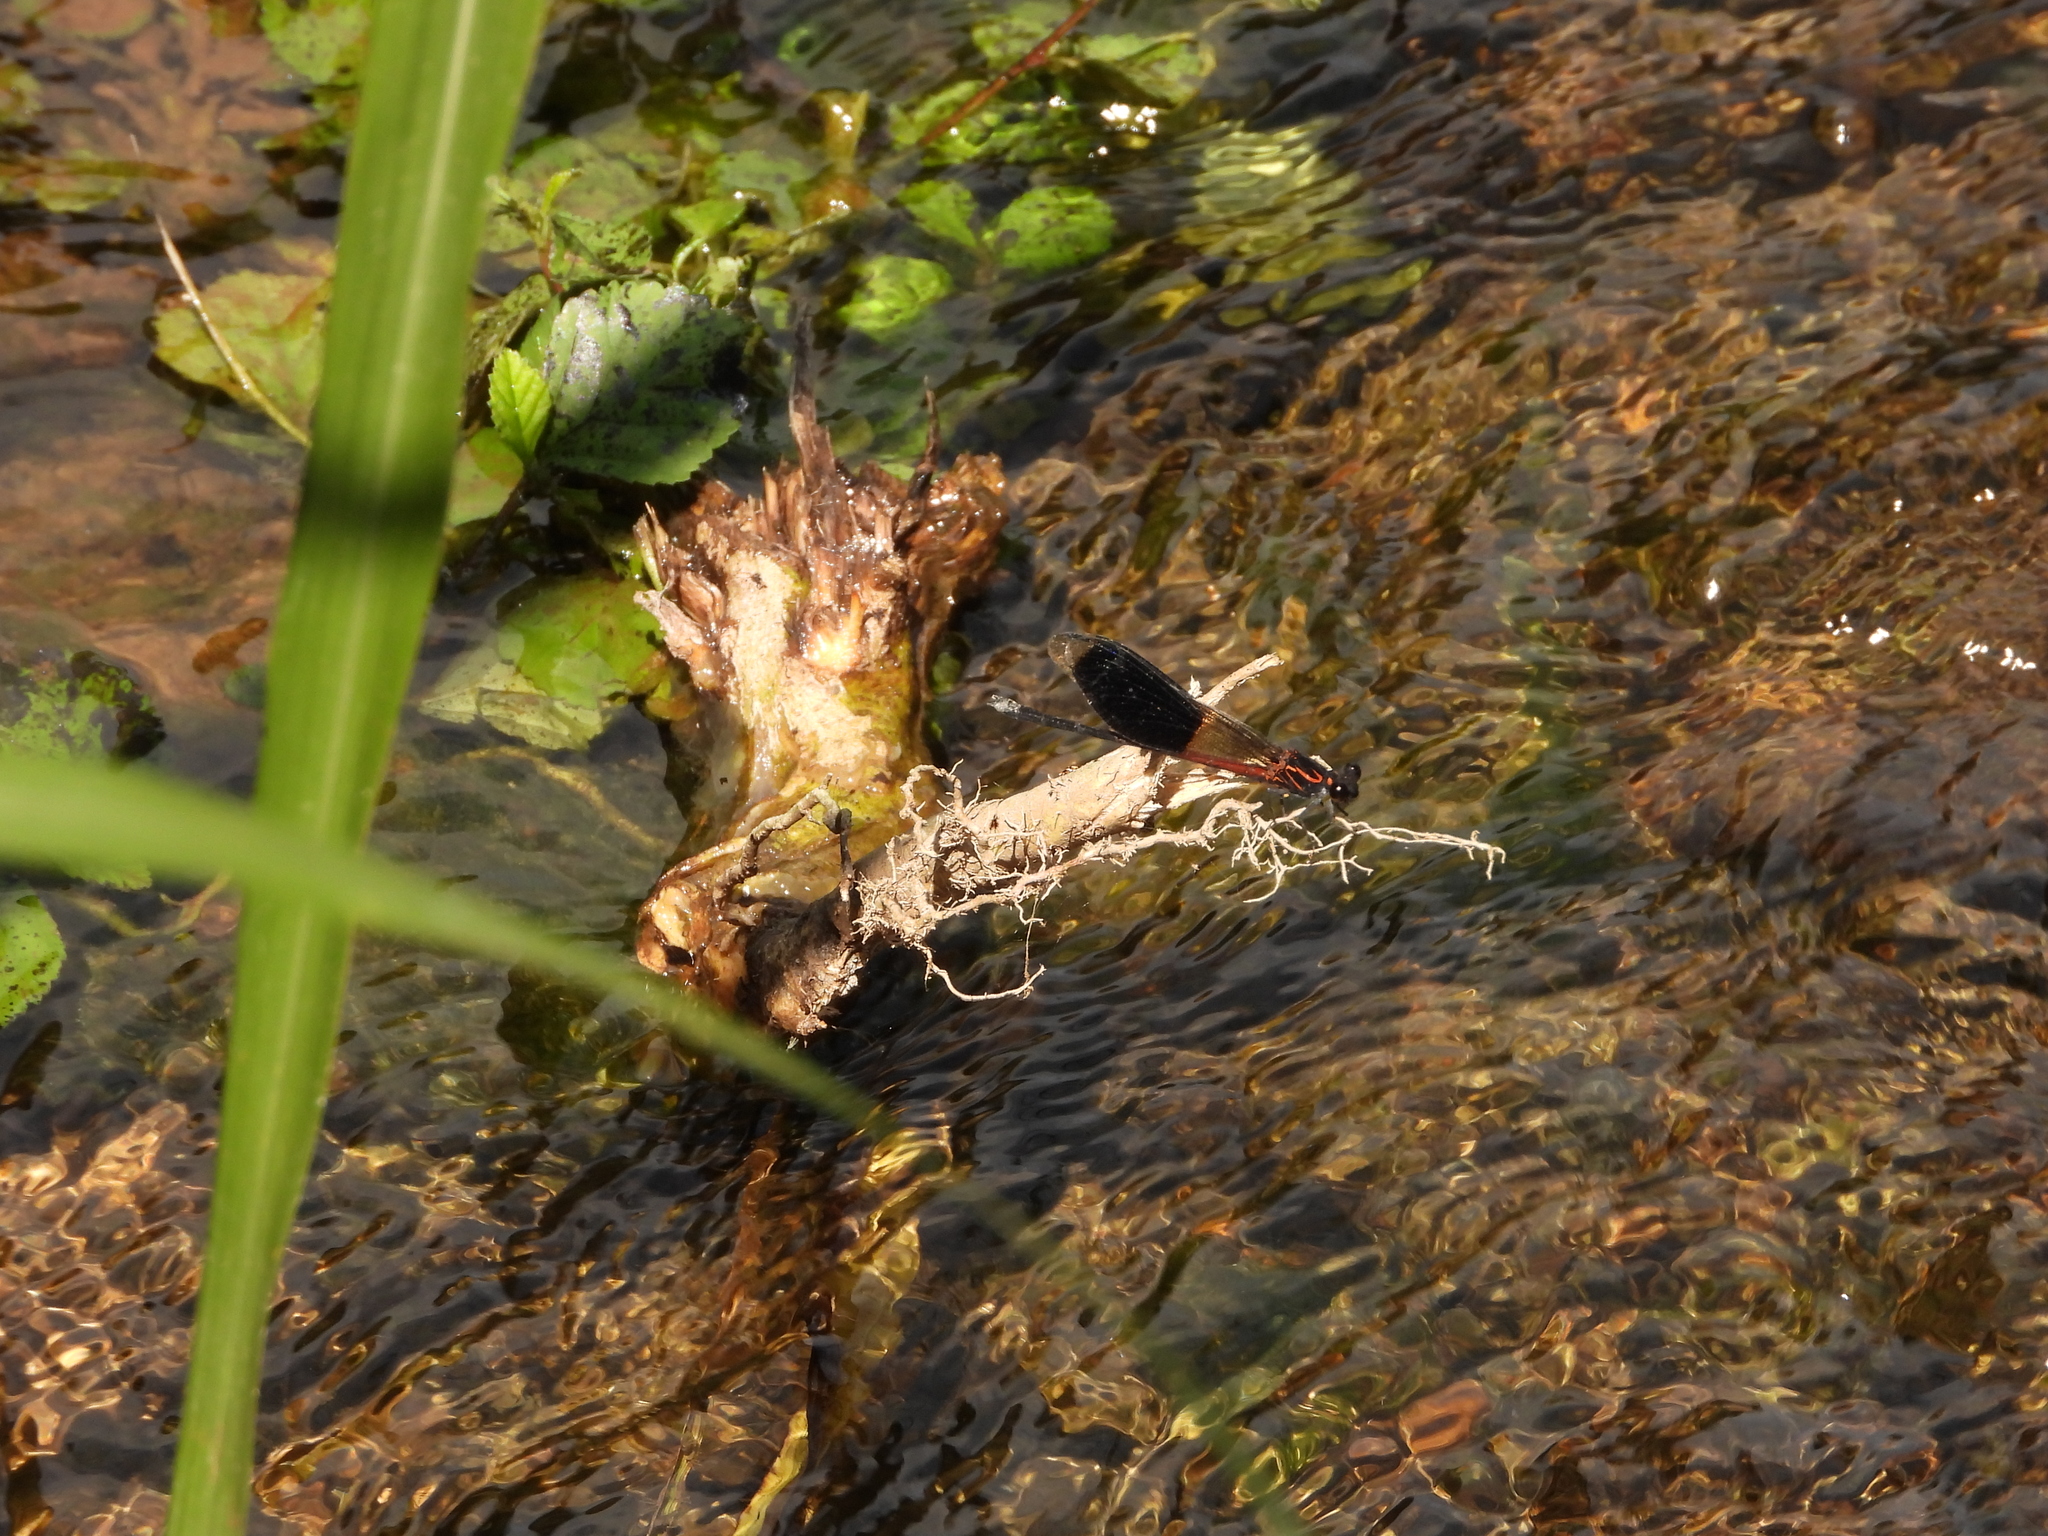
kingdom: Animalia
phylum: Arthropoda
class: Insecta
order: Odonata
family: Euphaeidae
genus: Euphaea
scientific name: Euphaea formosa
